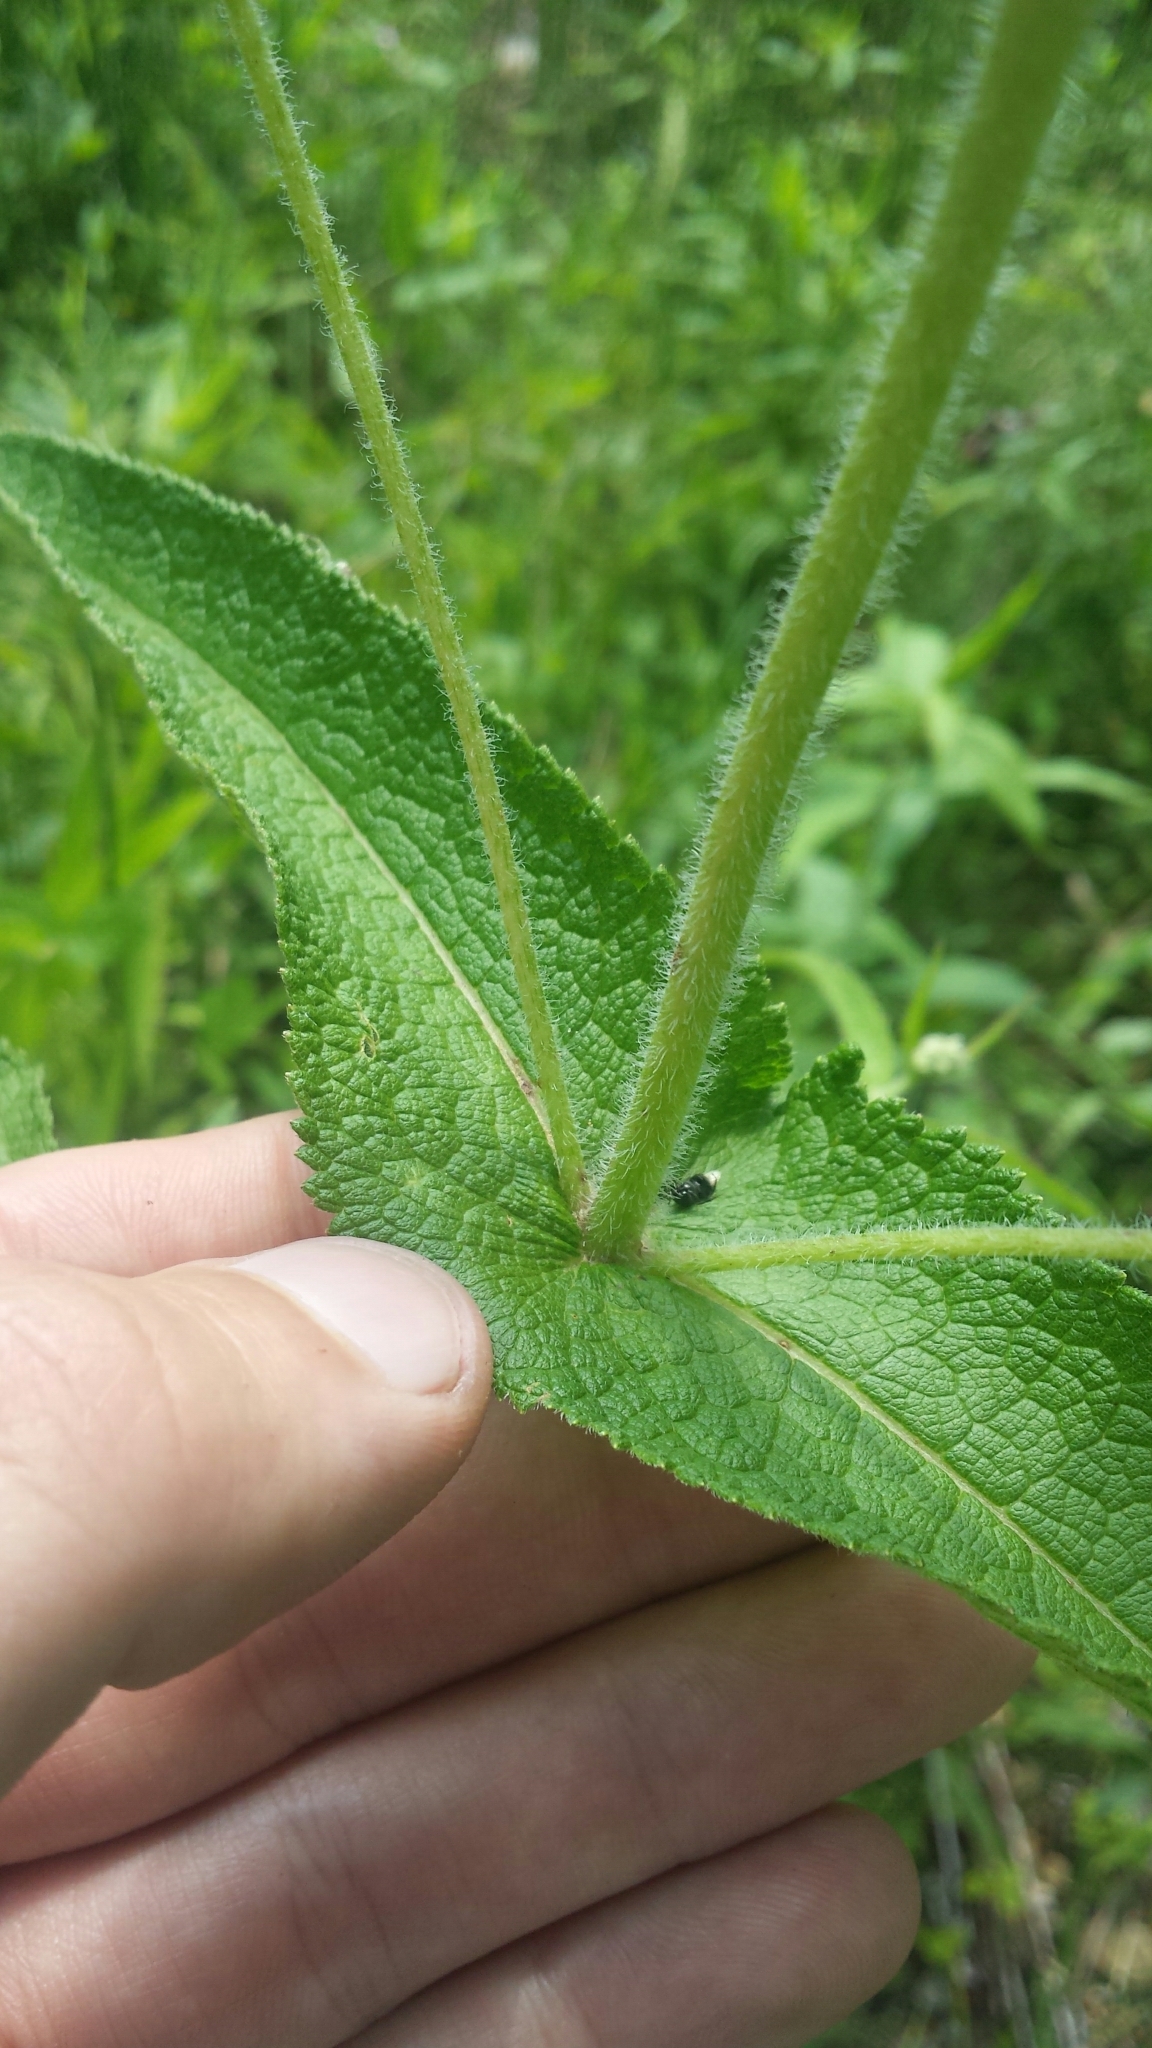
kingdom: Plantae
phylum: Tracheophyta
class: Magnoliopsida
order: Asterales
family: Asteraceae
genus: Eupatorium
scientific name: Eupatorium perfoliatum
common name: Boneset
